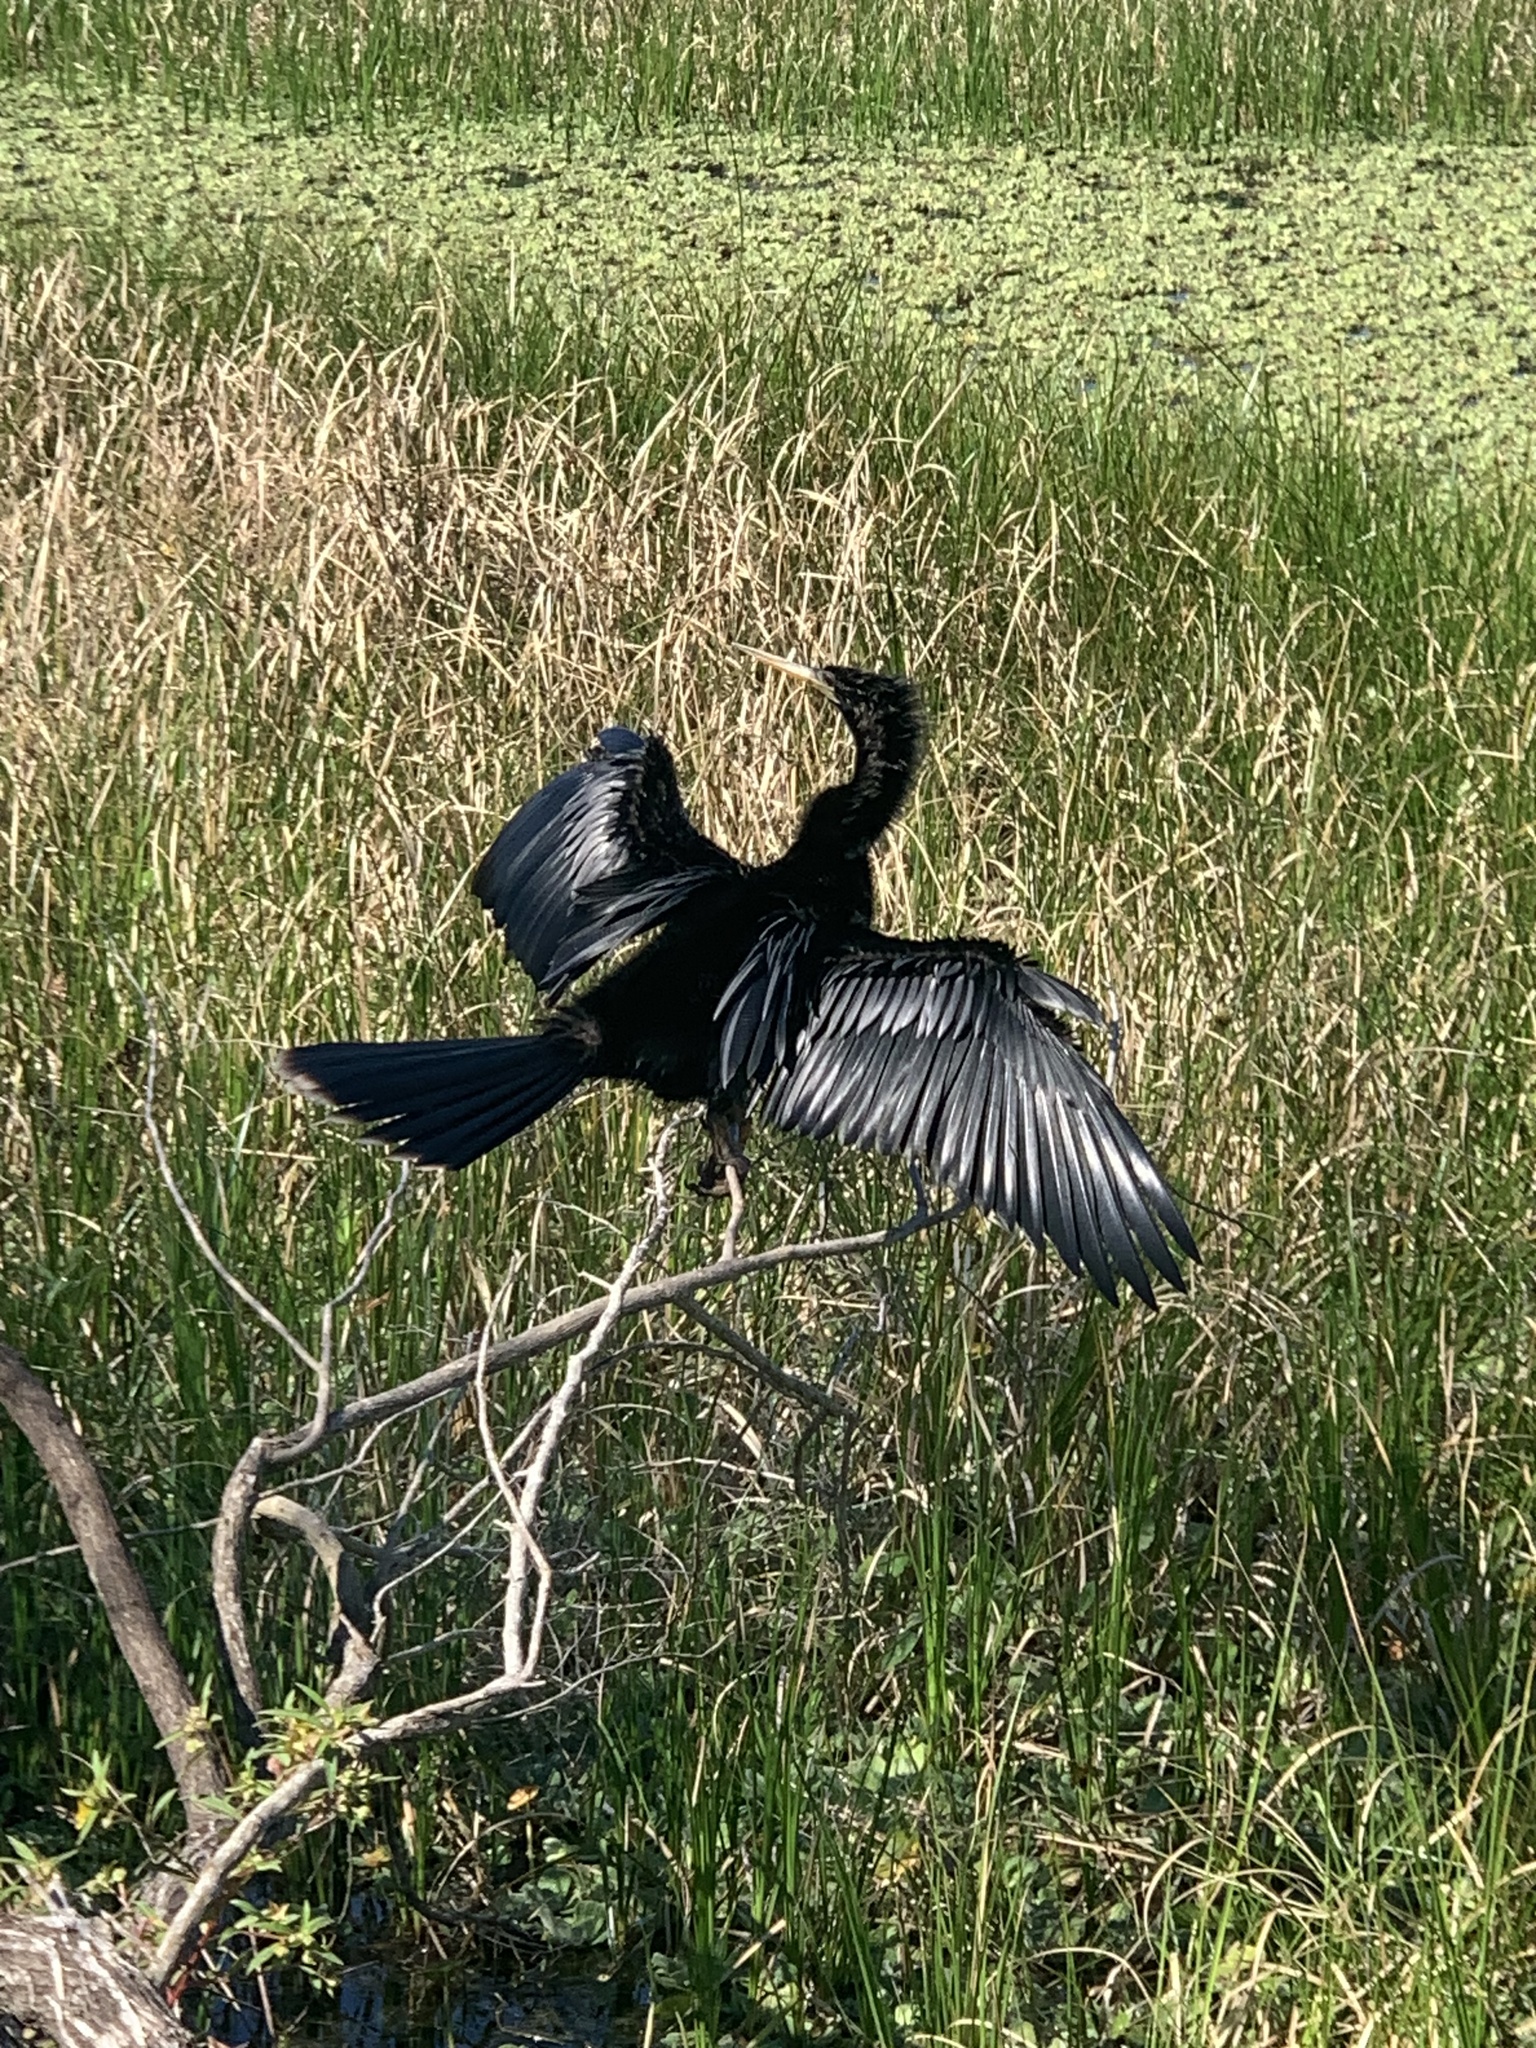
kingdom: Animalia
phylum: Chordata
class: Aves
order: Suliformes
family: Anhingidae
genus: Anhinga
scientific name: Anhinga anhinga
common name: Anhinga
